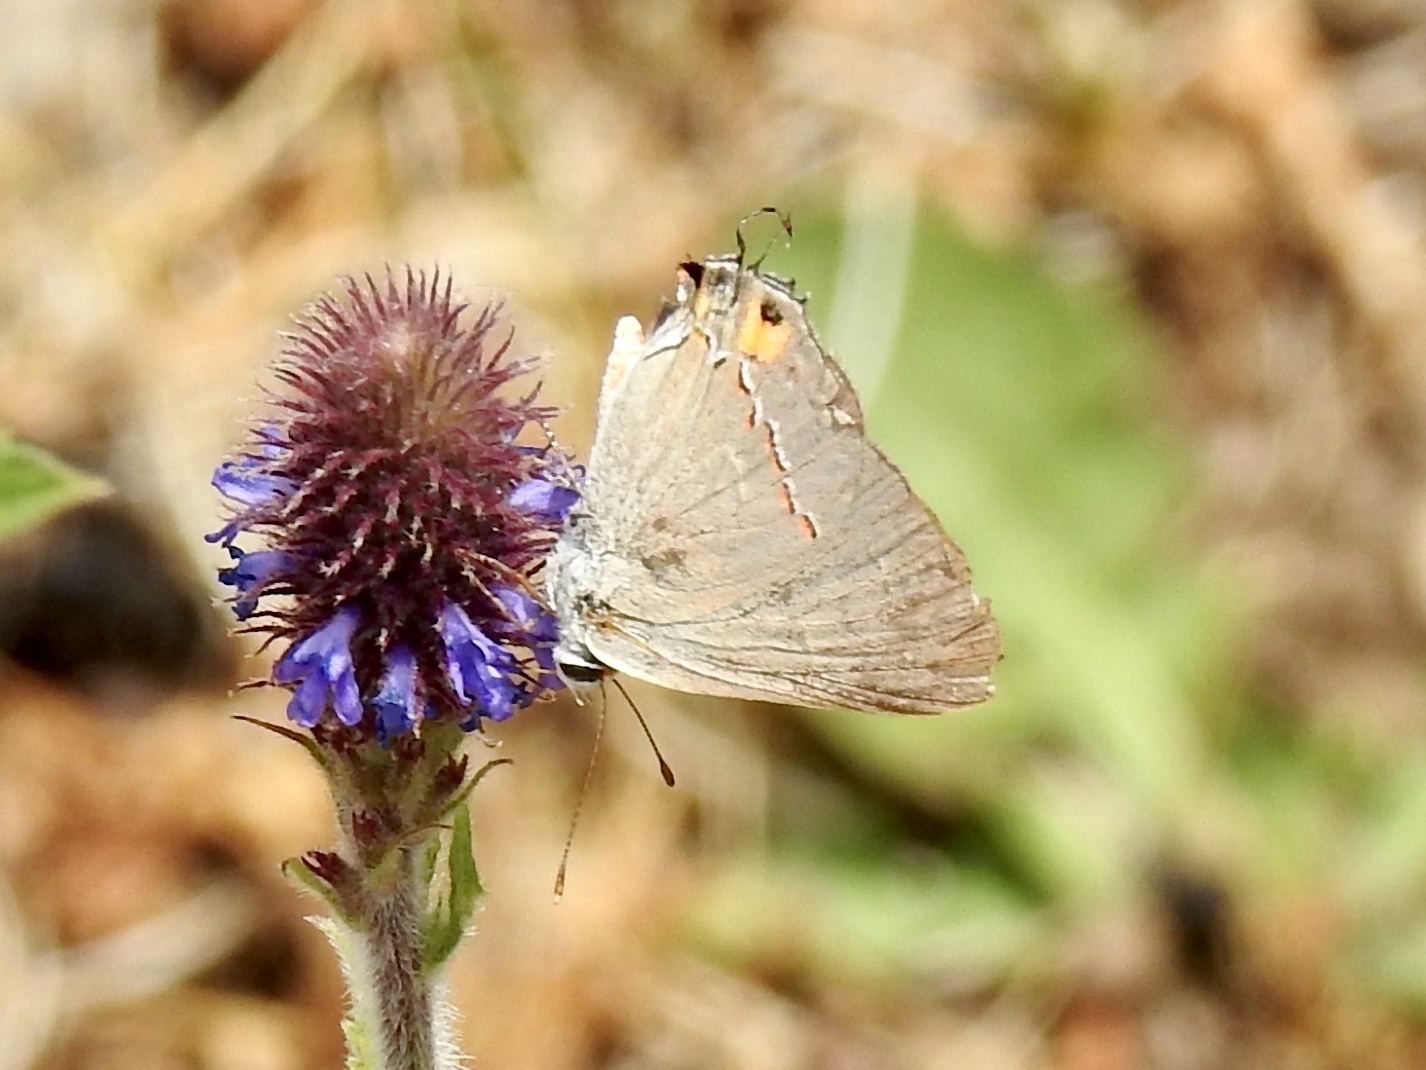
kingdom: Animalia
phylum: Arthropoda
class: Insecta
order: Lepidoptera
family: Lycaenidae
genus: Strymon
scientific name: Strymon melinus
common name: Gray hairstreak
